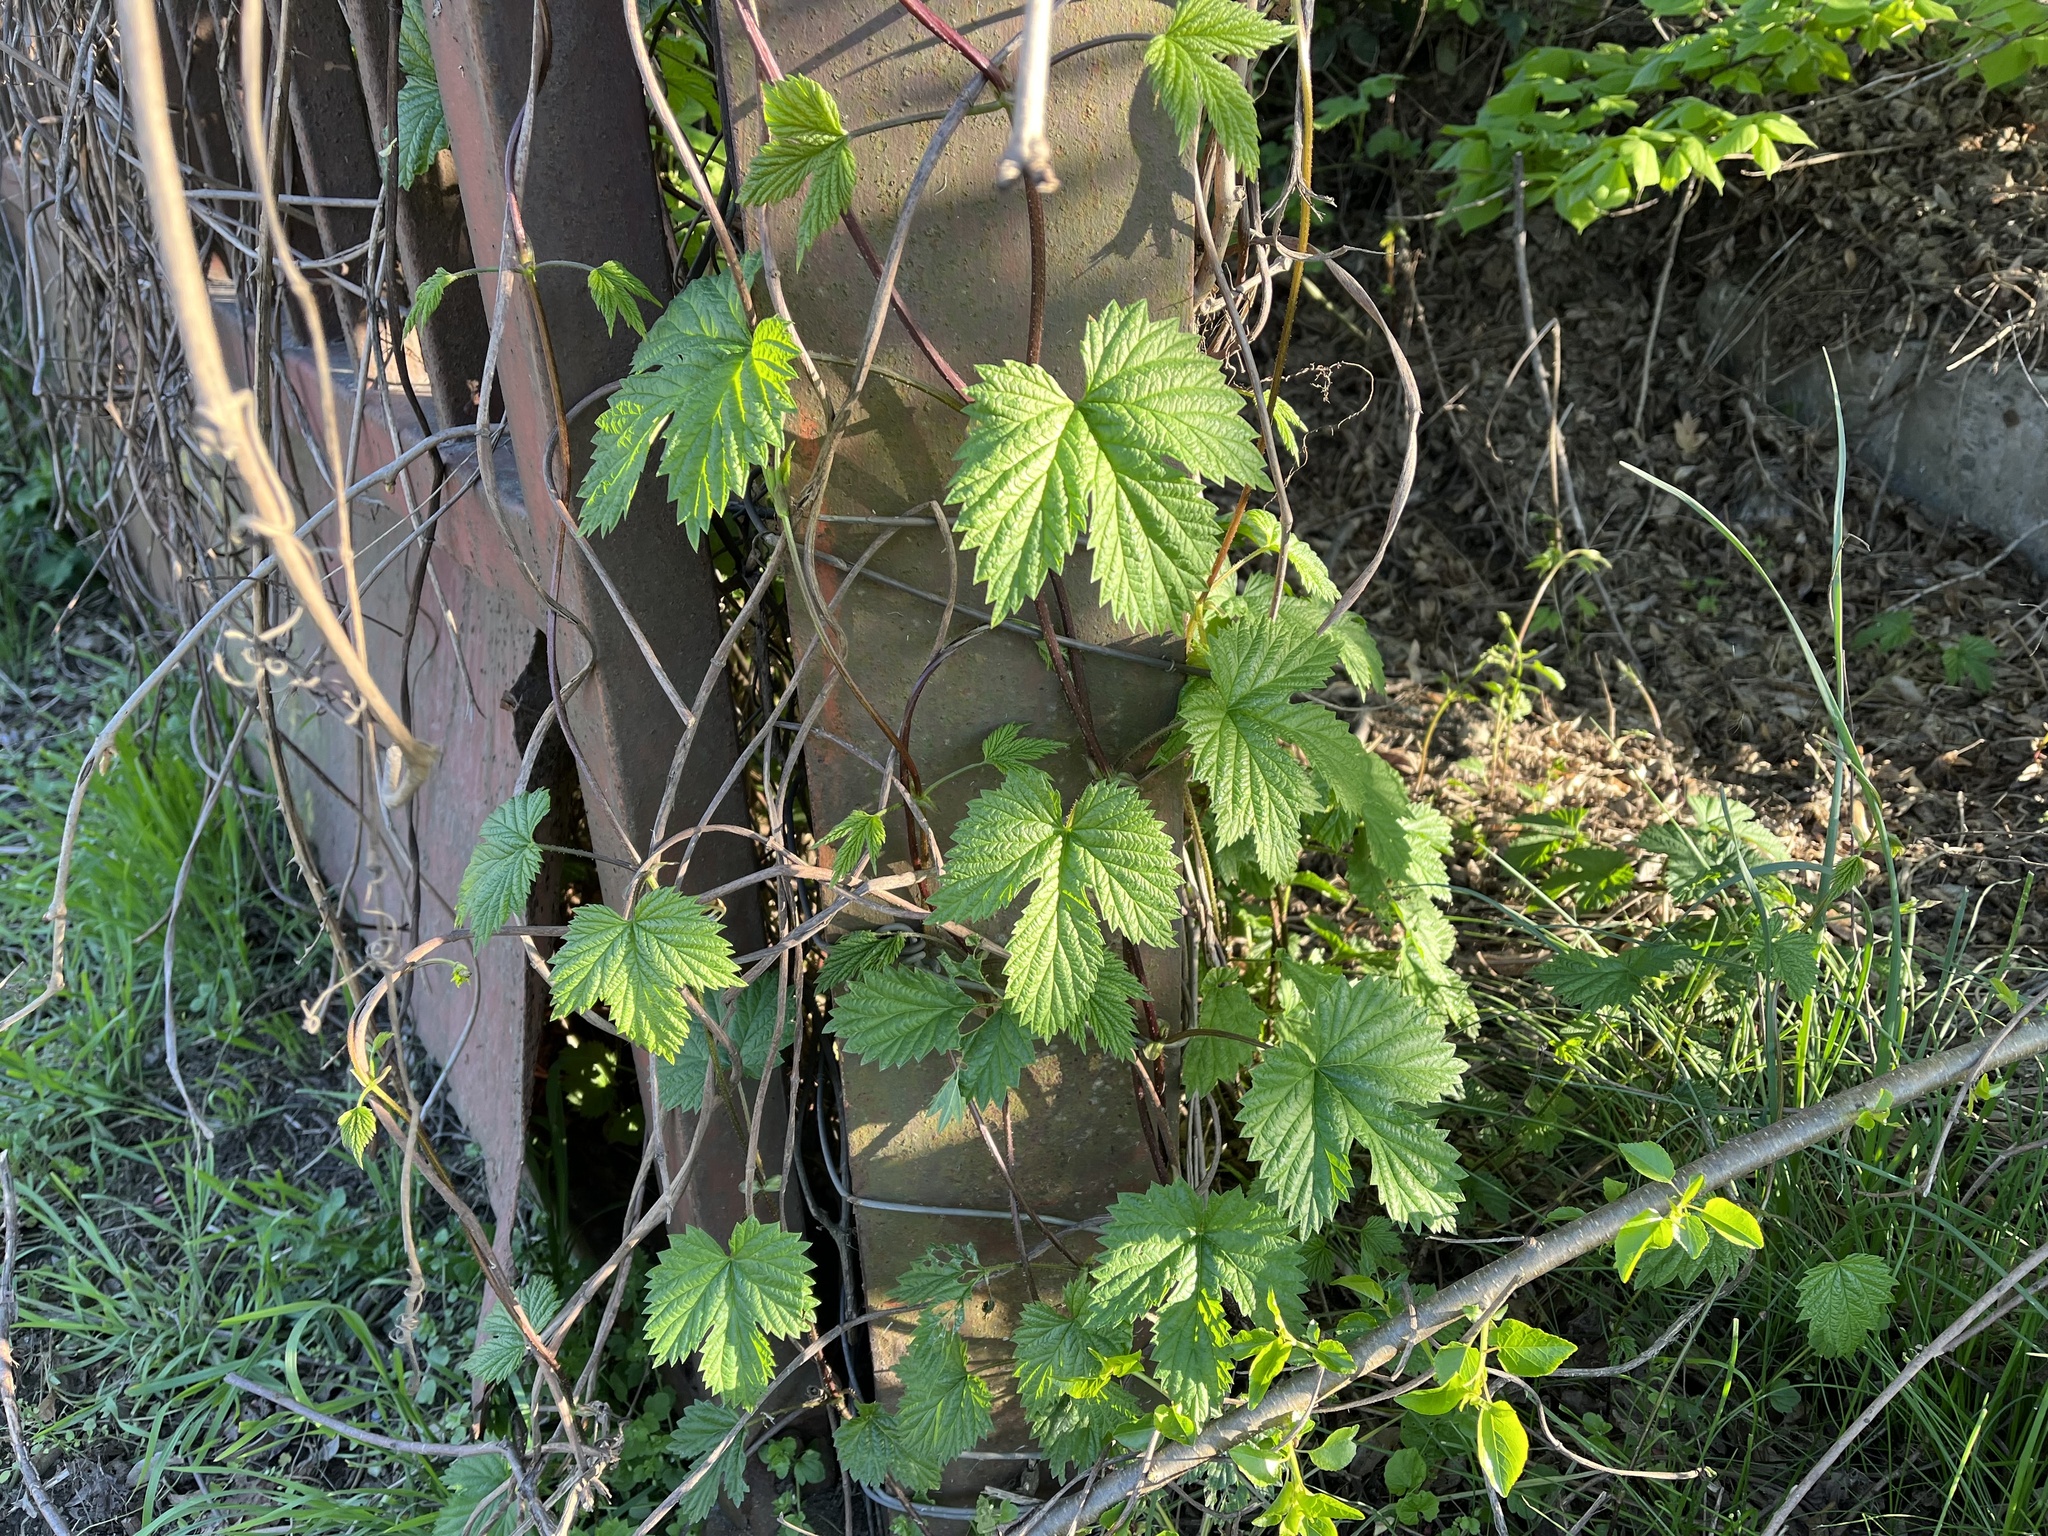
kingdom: Plantae
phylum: Tracheophyta
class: Magnoliopsida
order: Rosales
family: Cannabaceae
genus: Humulus
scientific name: Humulus lupulus
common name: Hop
